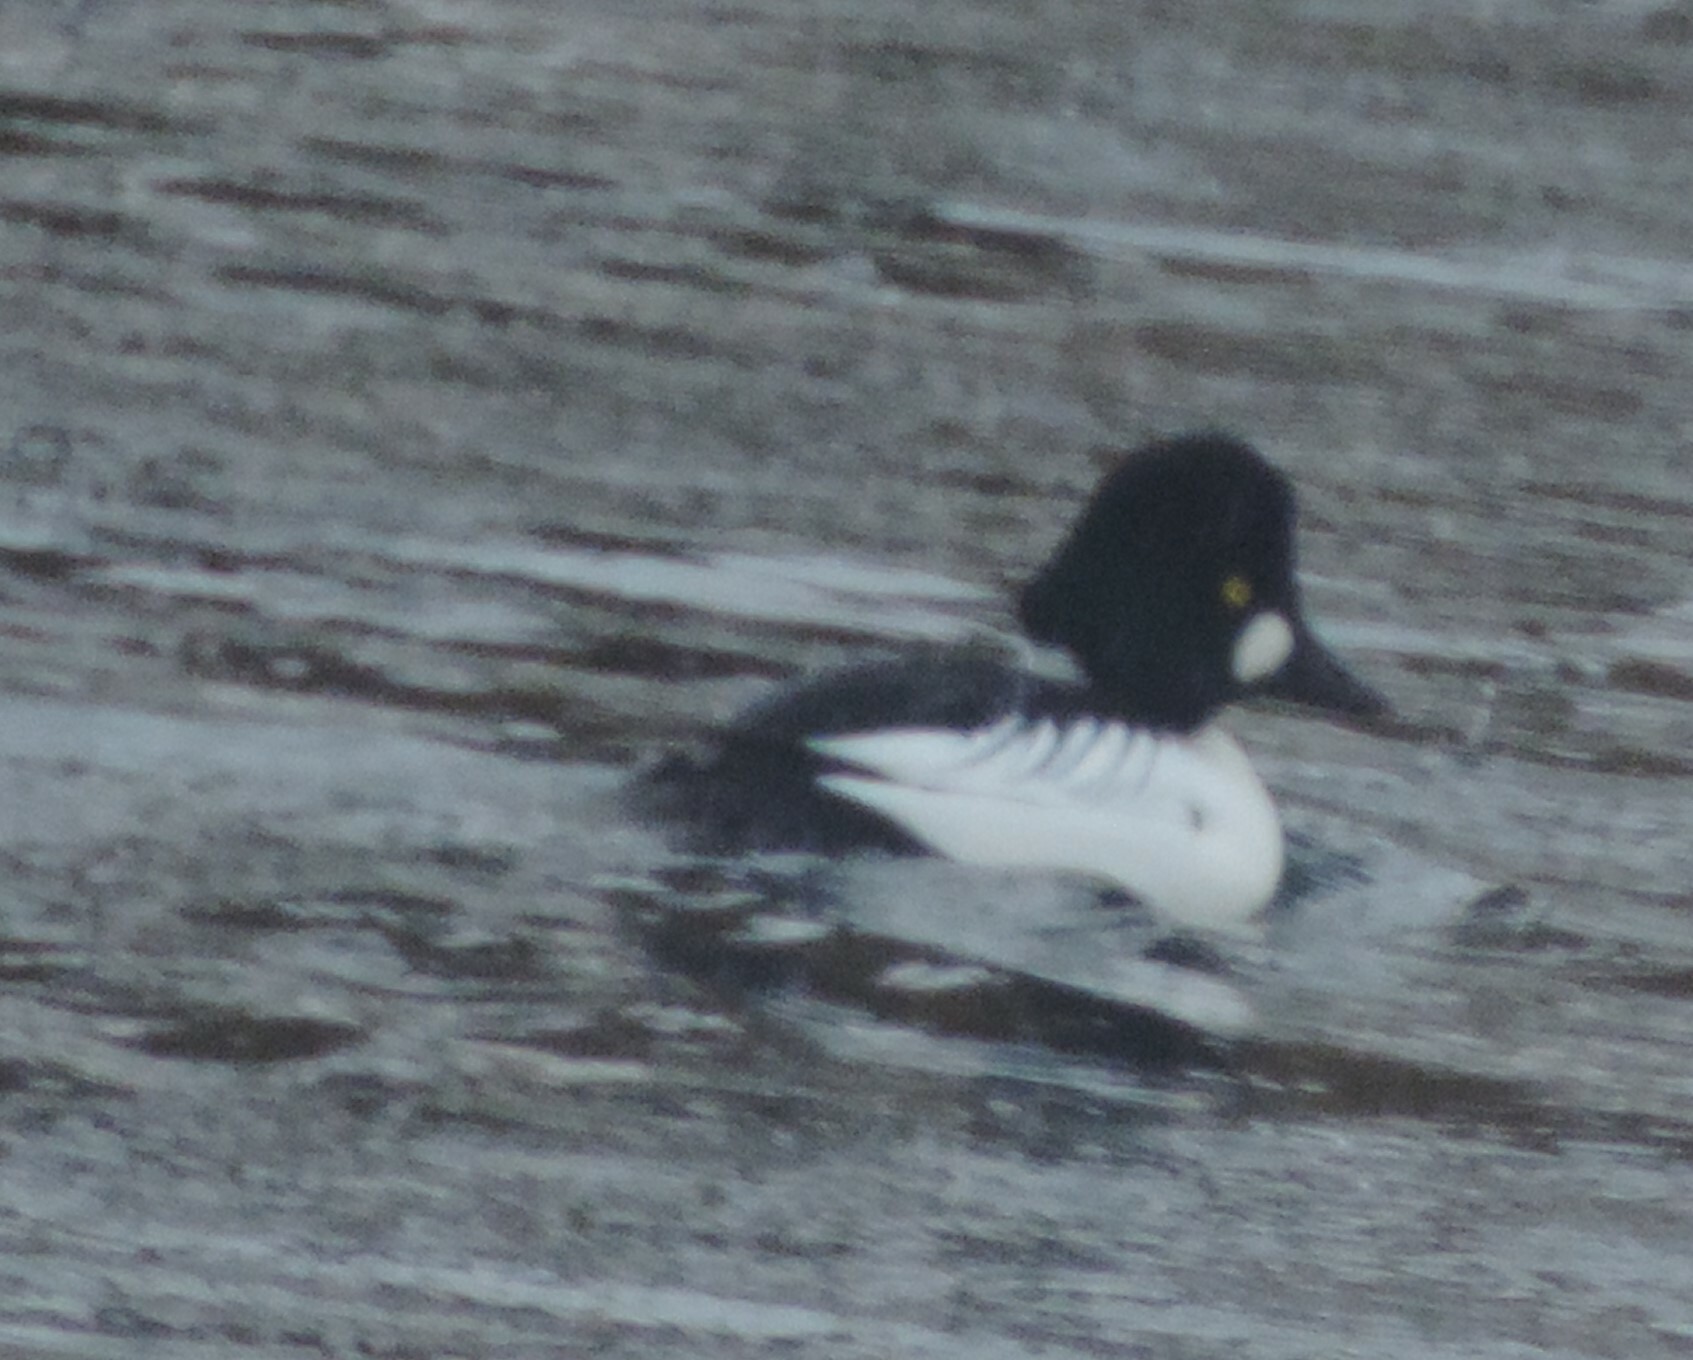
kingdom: Animalia
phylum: Chordata
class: Aves
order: Anseriformes
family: Anatidae
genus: Bucephala
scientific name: Bucephala clangula
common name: Common goldeneye
